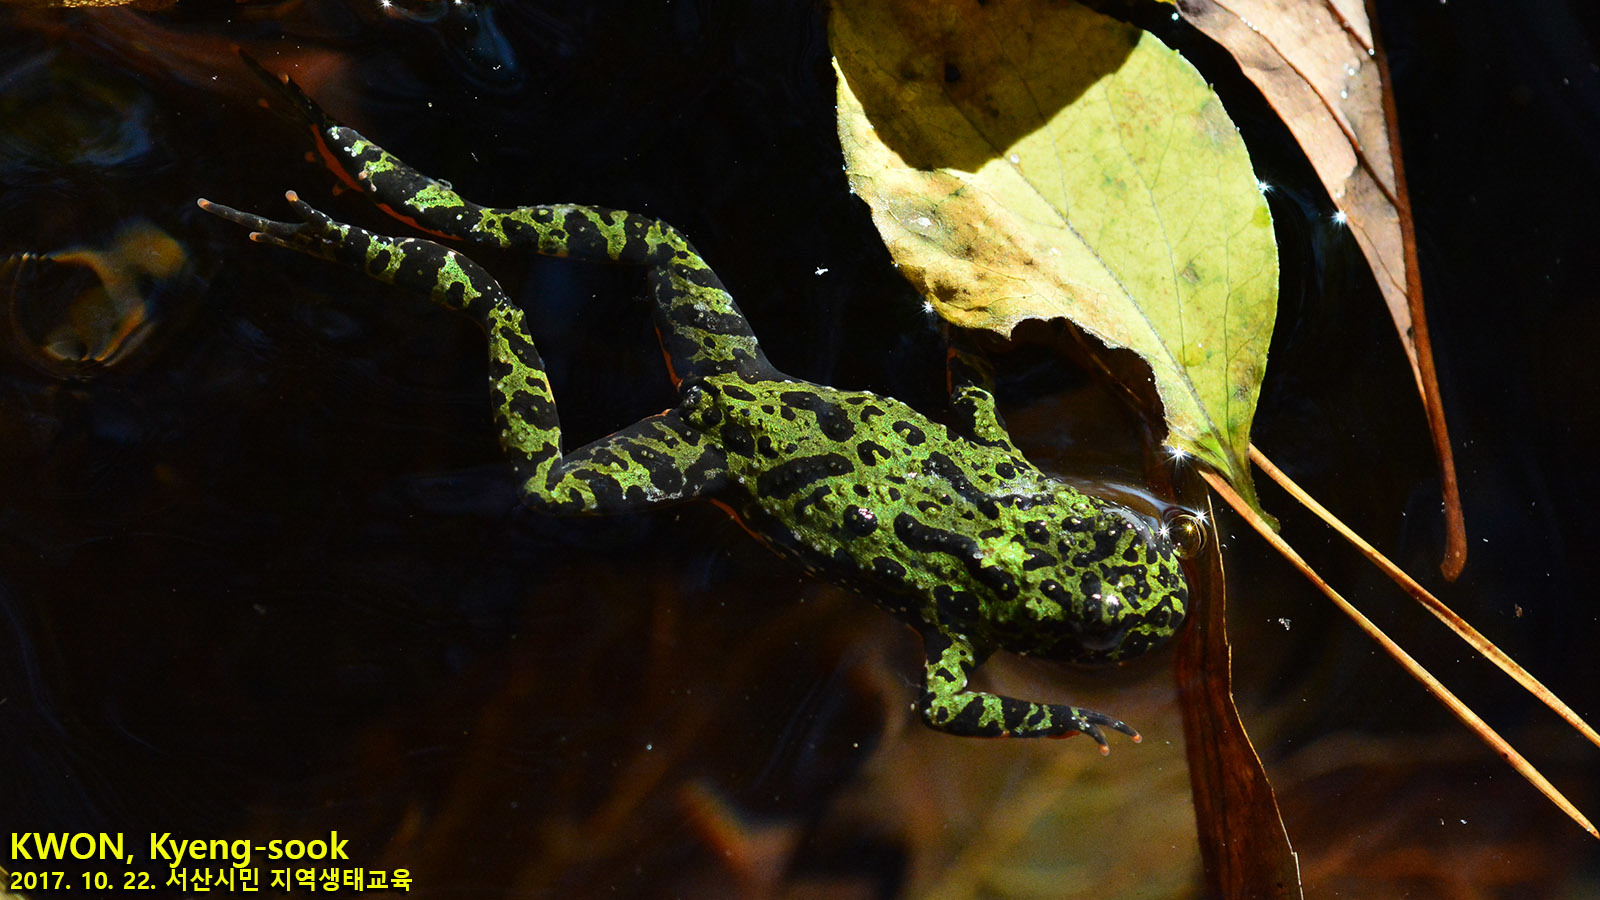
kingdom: Animalia
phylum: Chordata
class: Amphibia
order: Anura
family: Bombinatoridae
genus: Bombina
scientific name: Bombina orientalis
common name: Oriental firebelly toad
